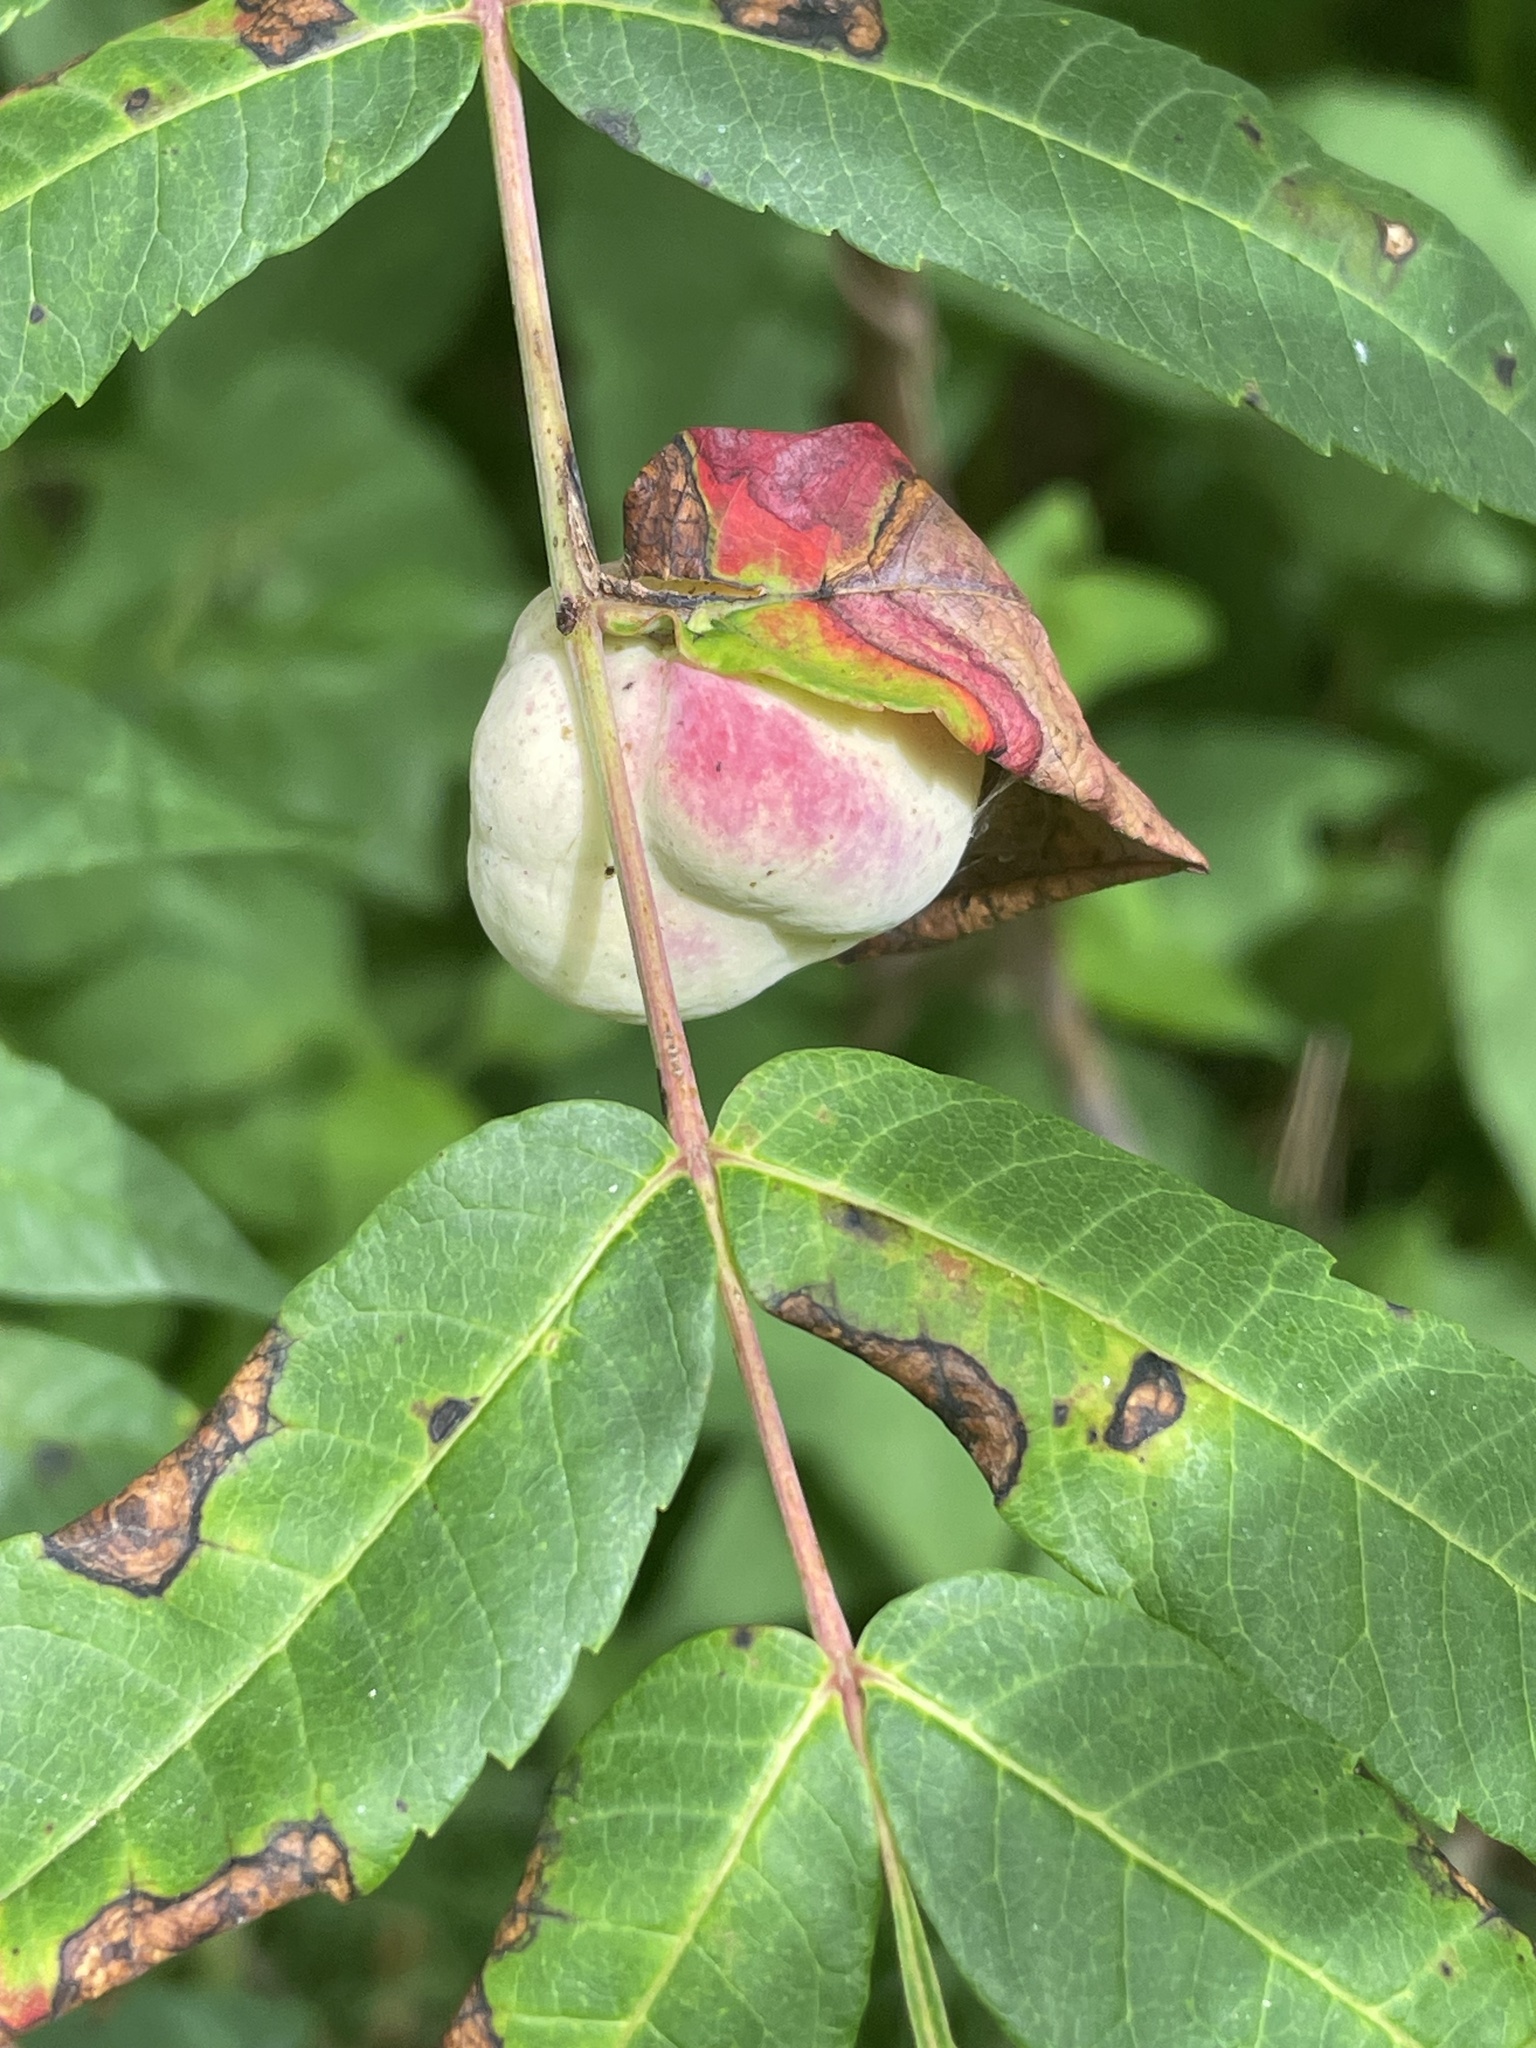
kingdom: Animalia
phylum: Arthropoda
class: Insecta
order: Hemiptera
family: Aphididae
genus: Melaphis
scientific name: Melaphis rhois
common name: Sumac gall aphid
